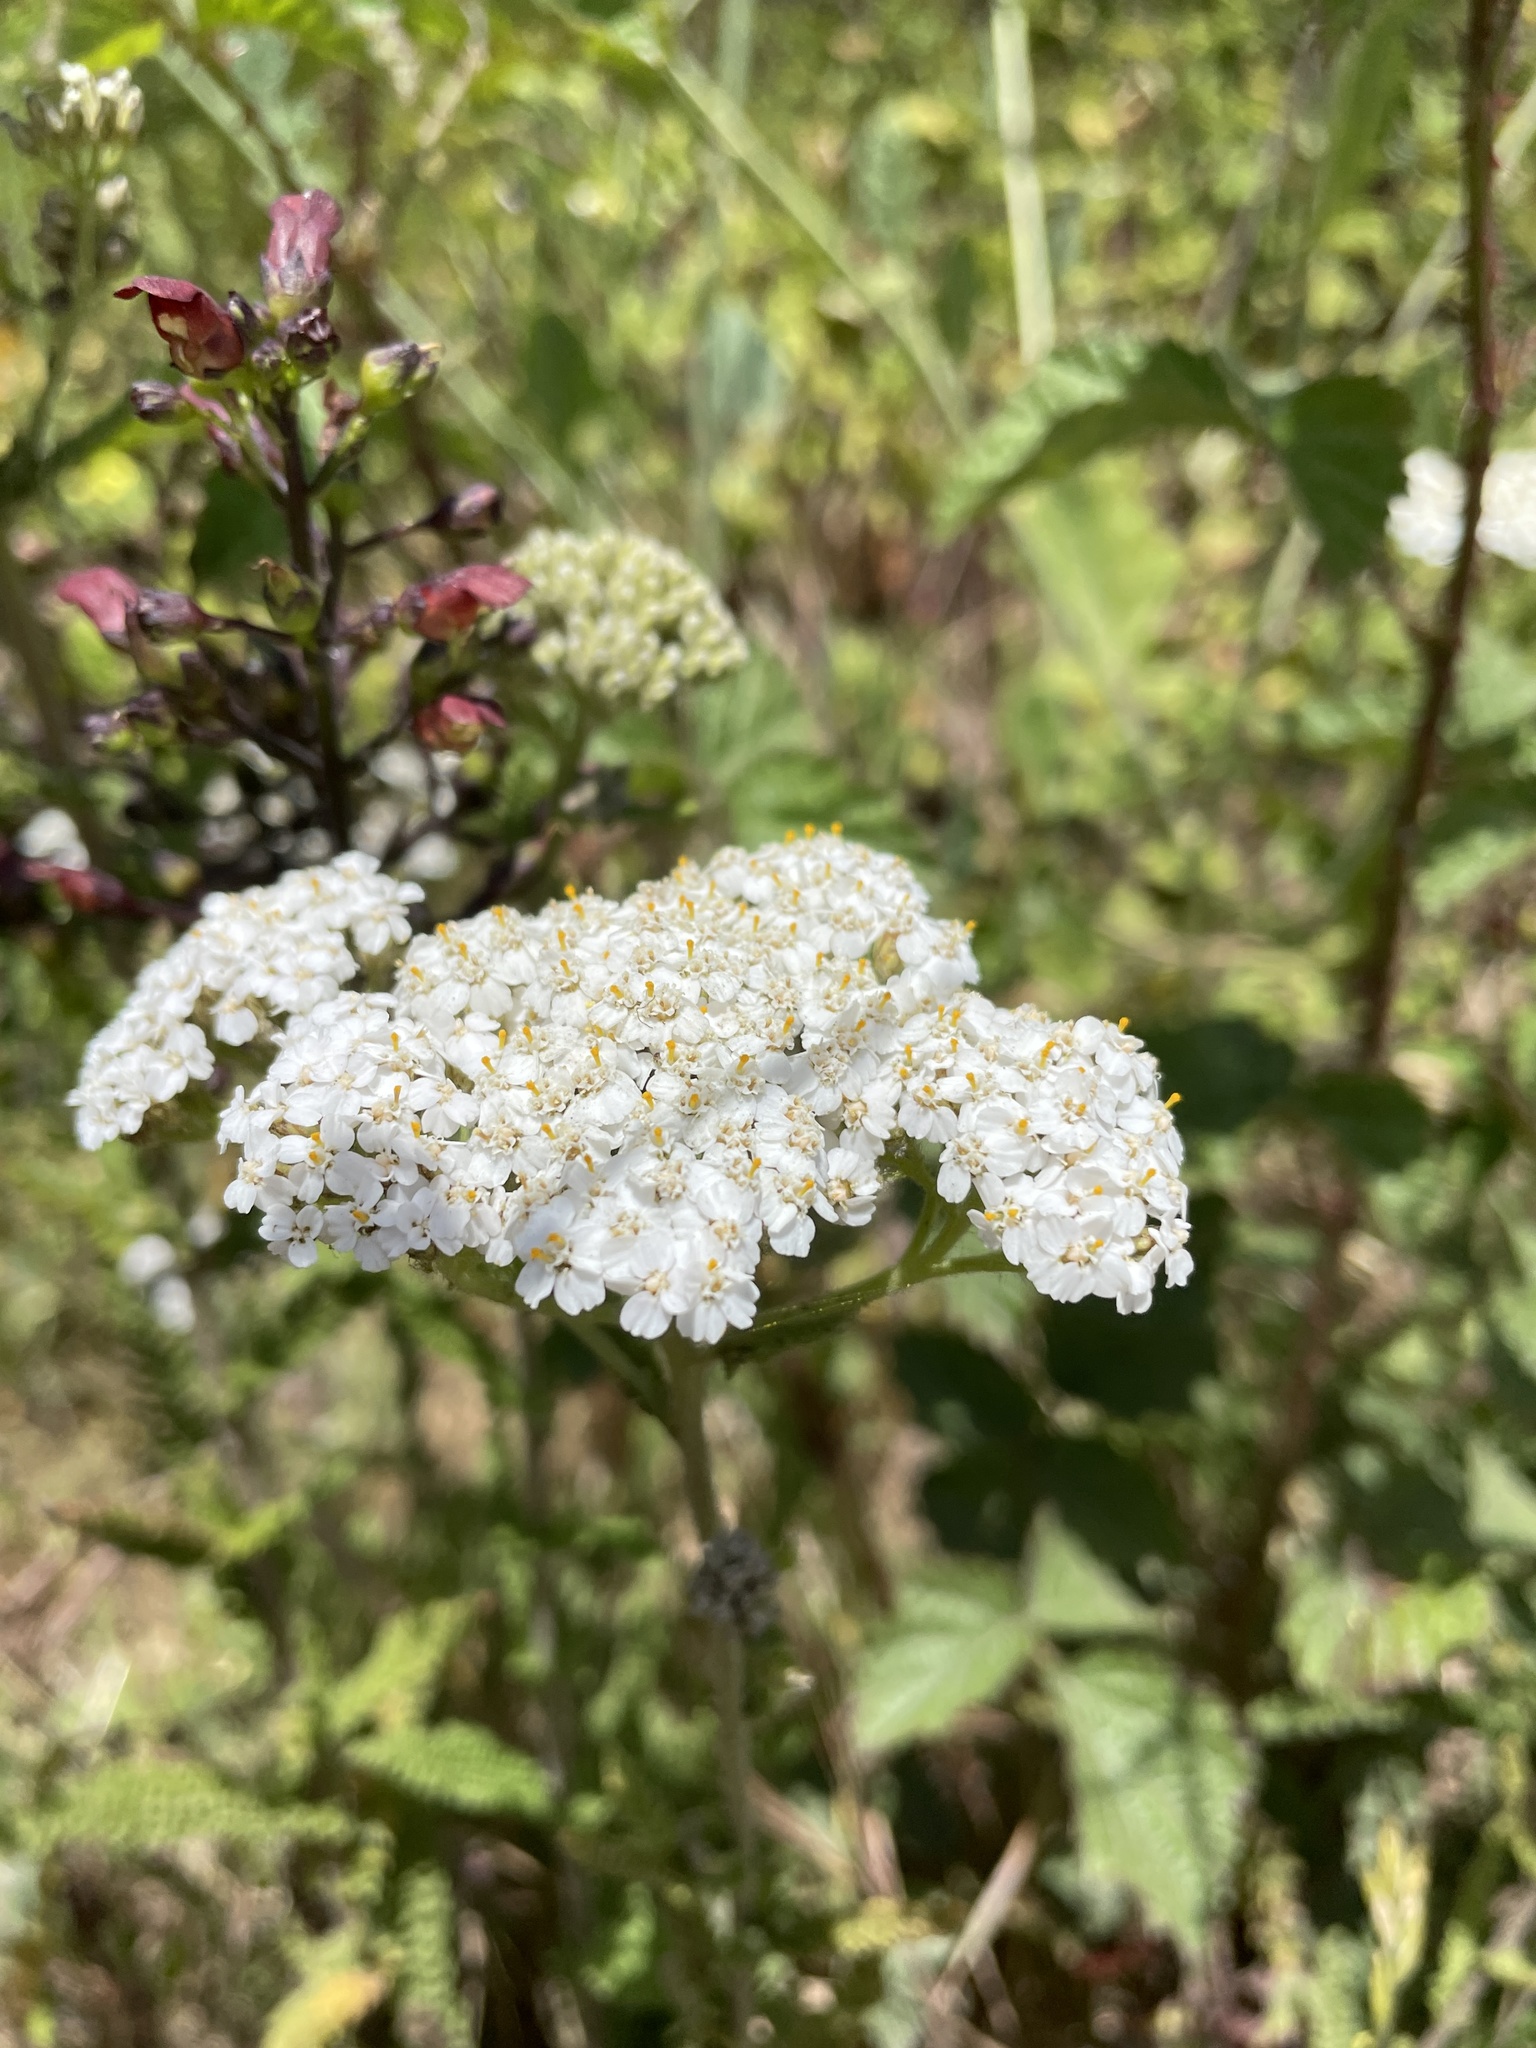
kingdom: Plantae
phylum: Tracheophyta
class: Magnoliopsida
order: Asterales
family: Asteraceae
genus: Achillea
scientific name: Achillea millefolium
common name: Yarrow
